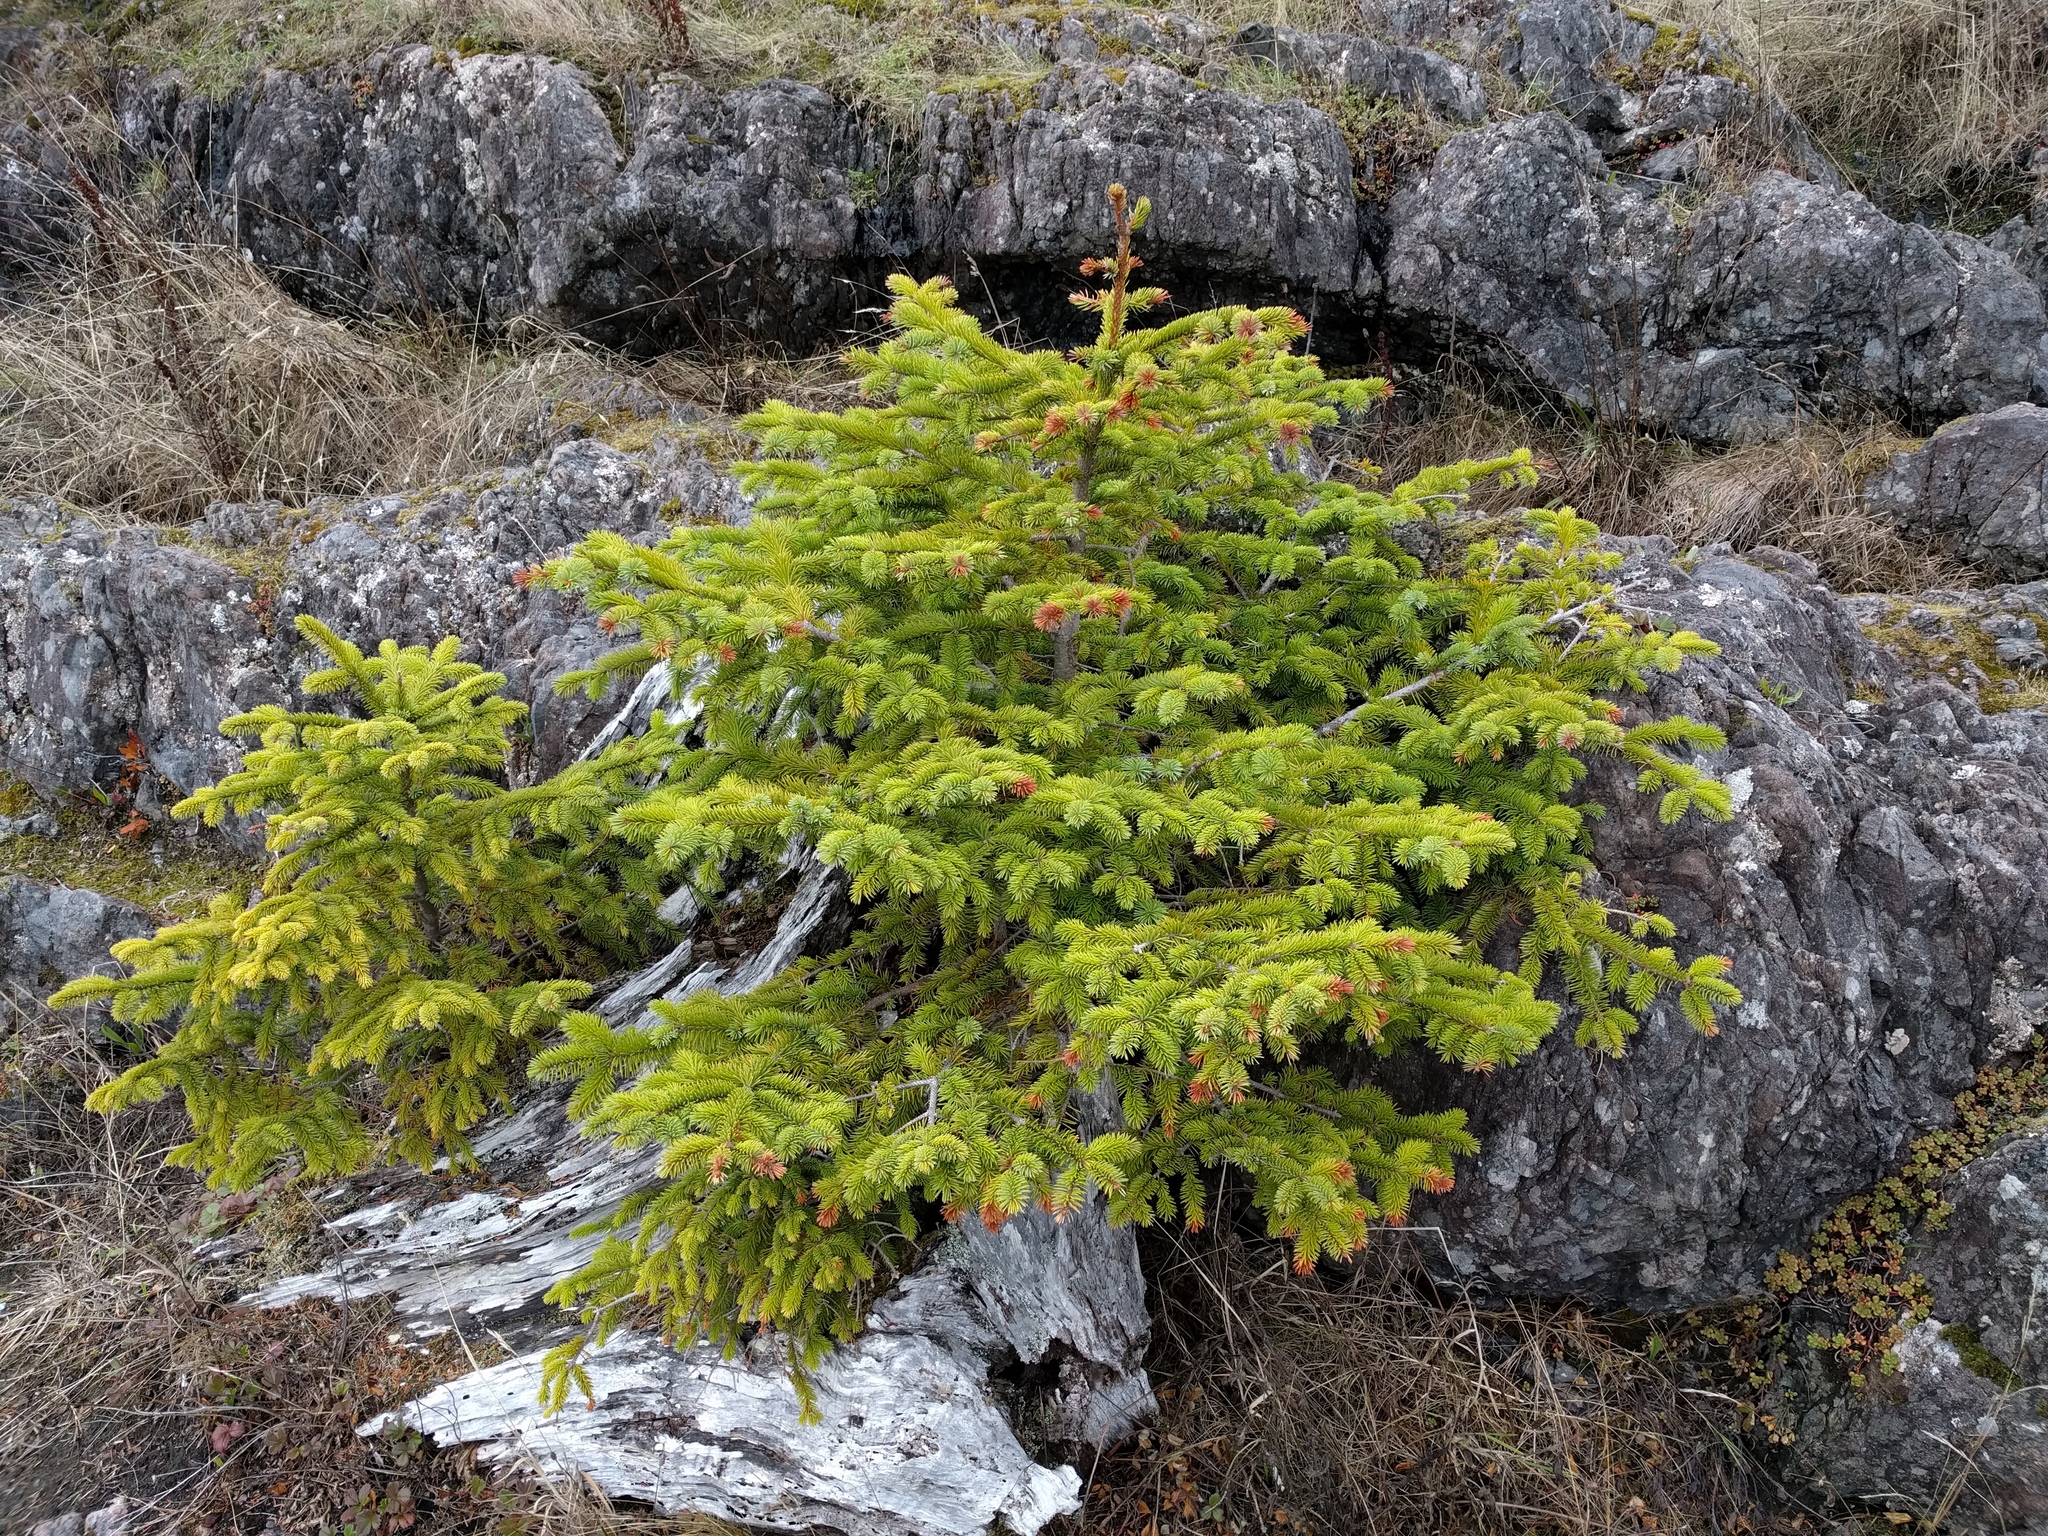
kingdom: Plantae
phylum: Tracheophyta
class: Pinopsida
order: Pinales
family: Pinaceae
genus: Picea
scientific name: Picea sitchensis
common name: Sitka spruce
